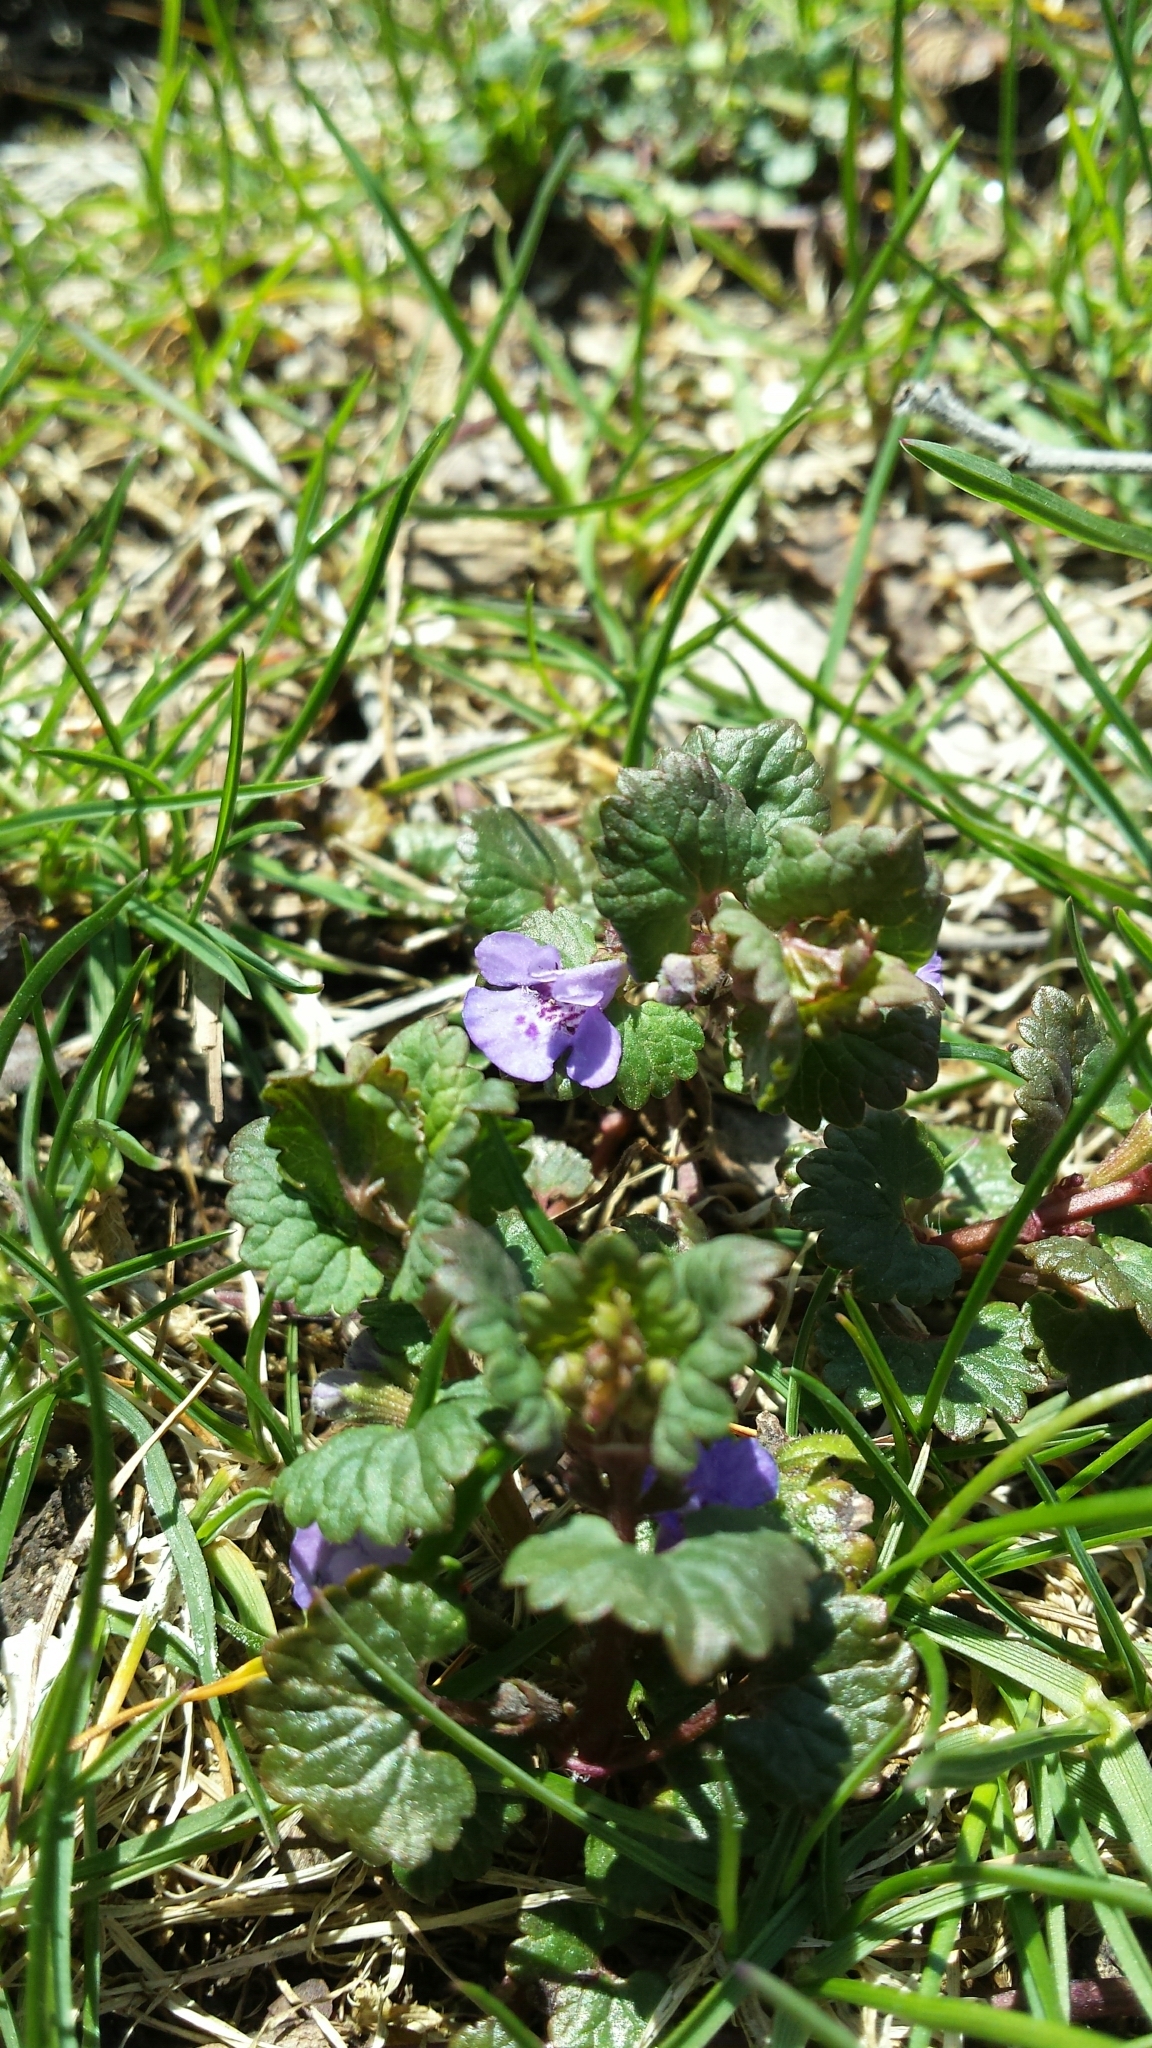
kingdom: Plantae
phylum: Tracheophyta
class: Magnoliopsida
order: Lamiales
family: Lamiaceae
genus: Glechoma
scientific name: Glechoma hederacea
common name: Ground ivy
